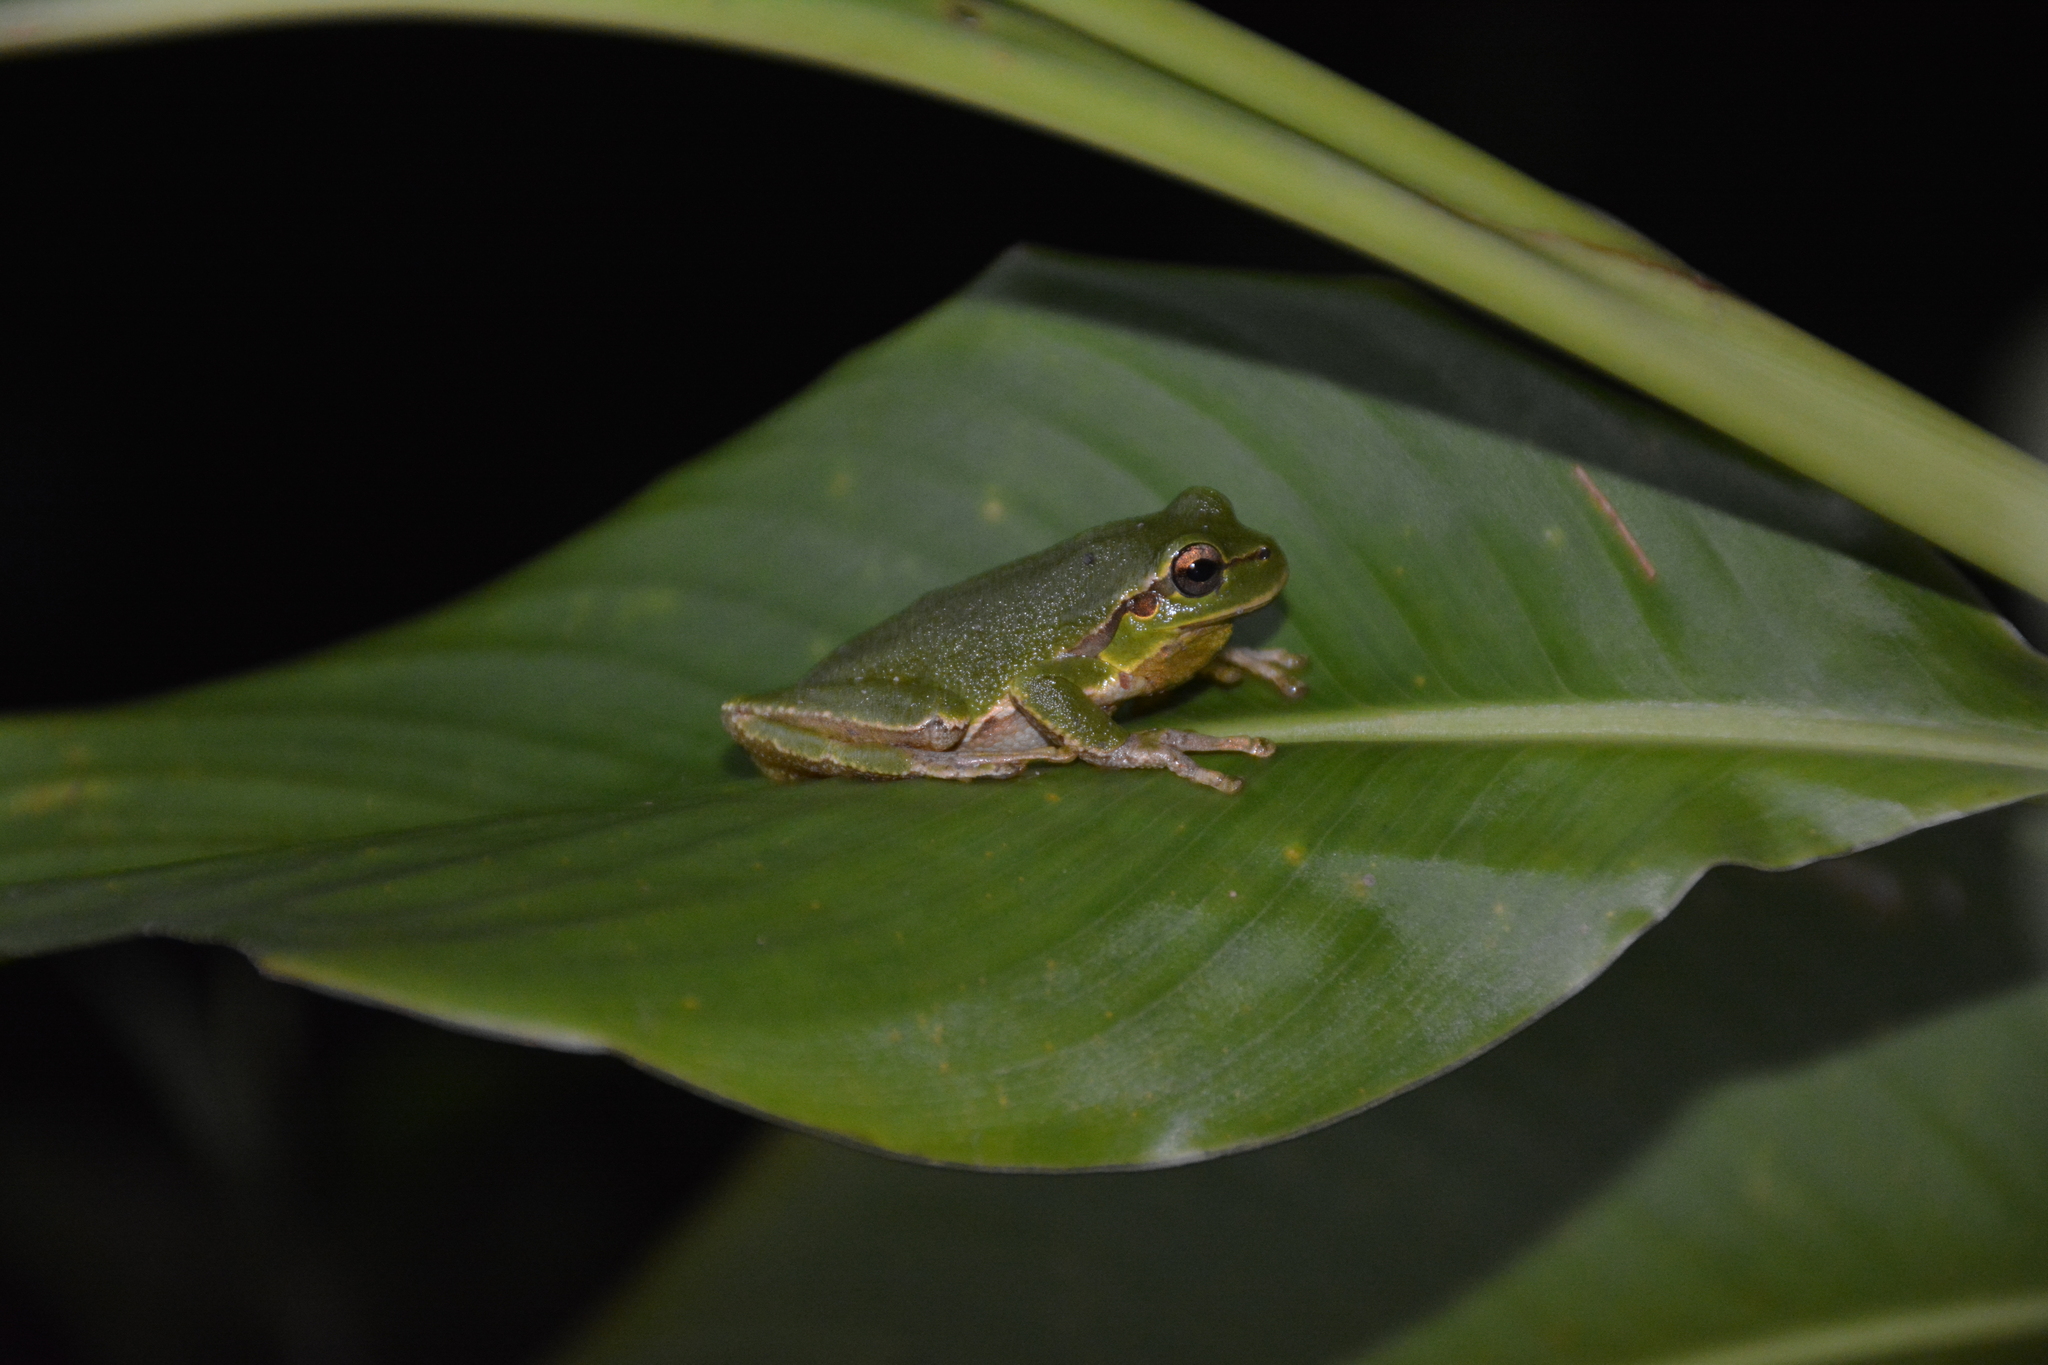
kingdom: Animalia
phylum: Chordata
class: Amphibia
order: Anura
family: Hylidae
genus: Hyla
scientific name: Hyla orientalis
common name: Caucasian treefrog
